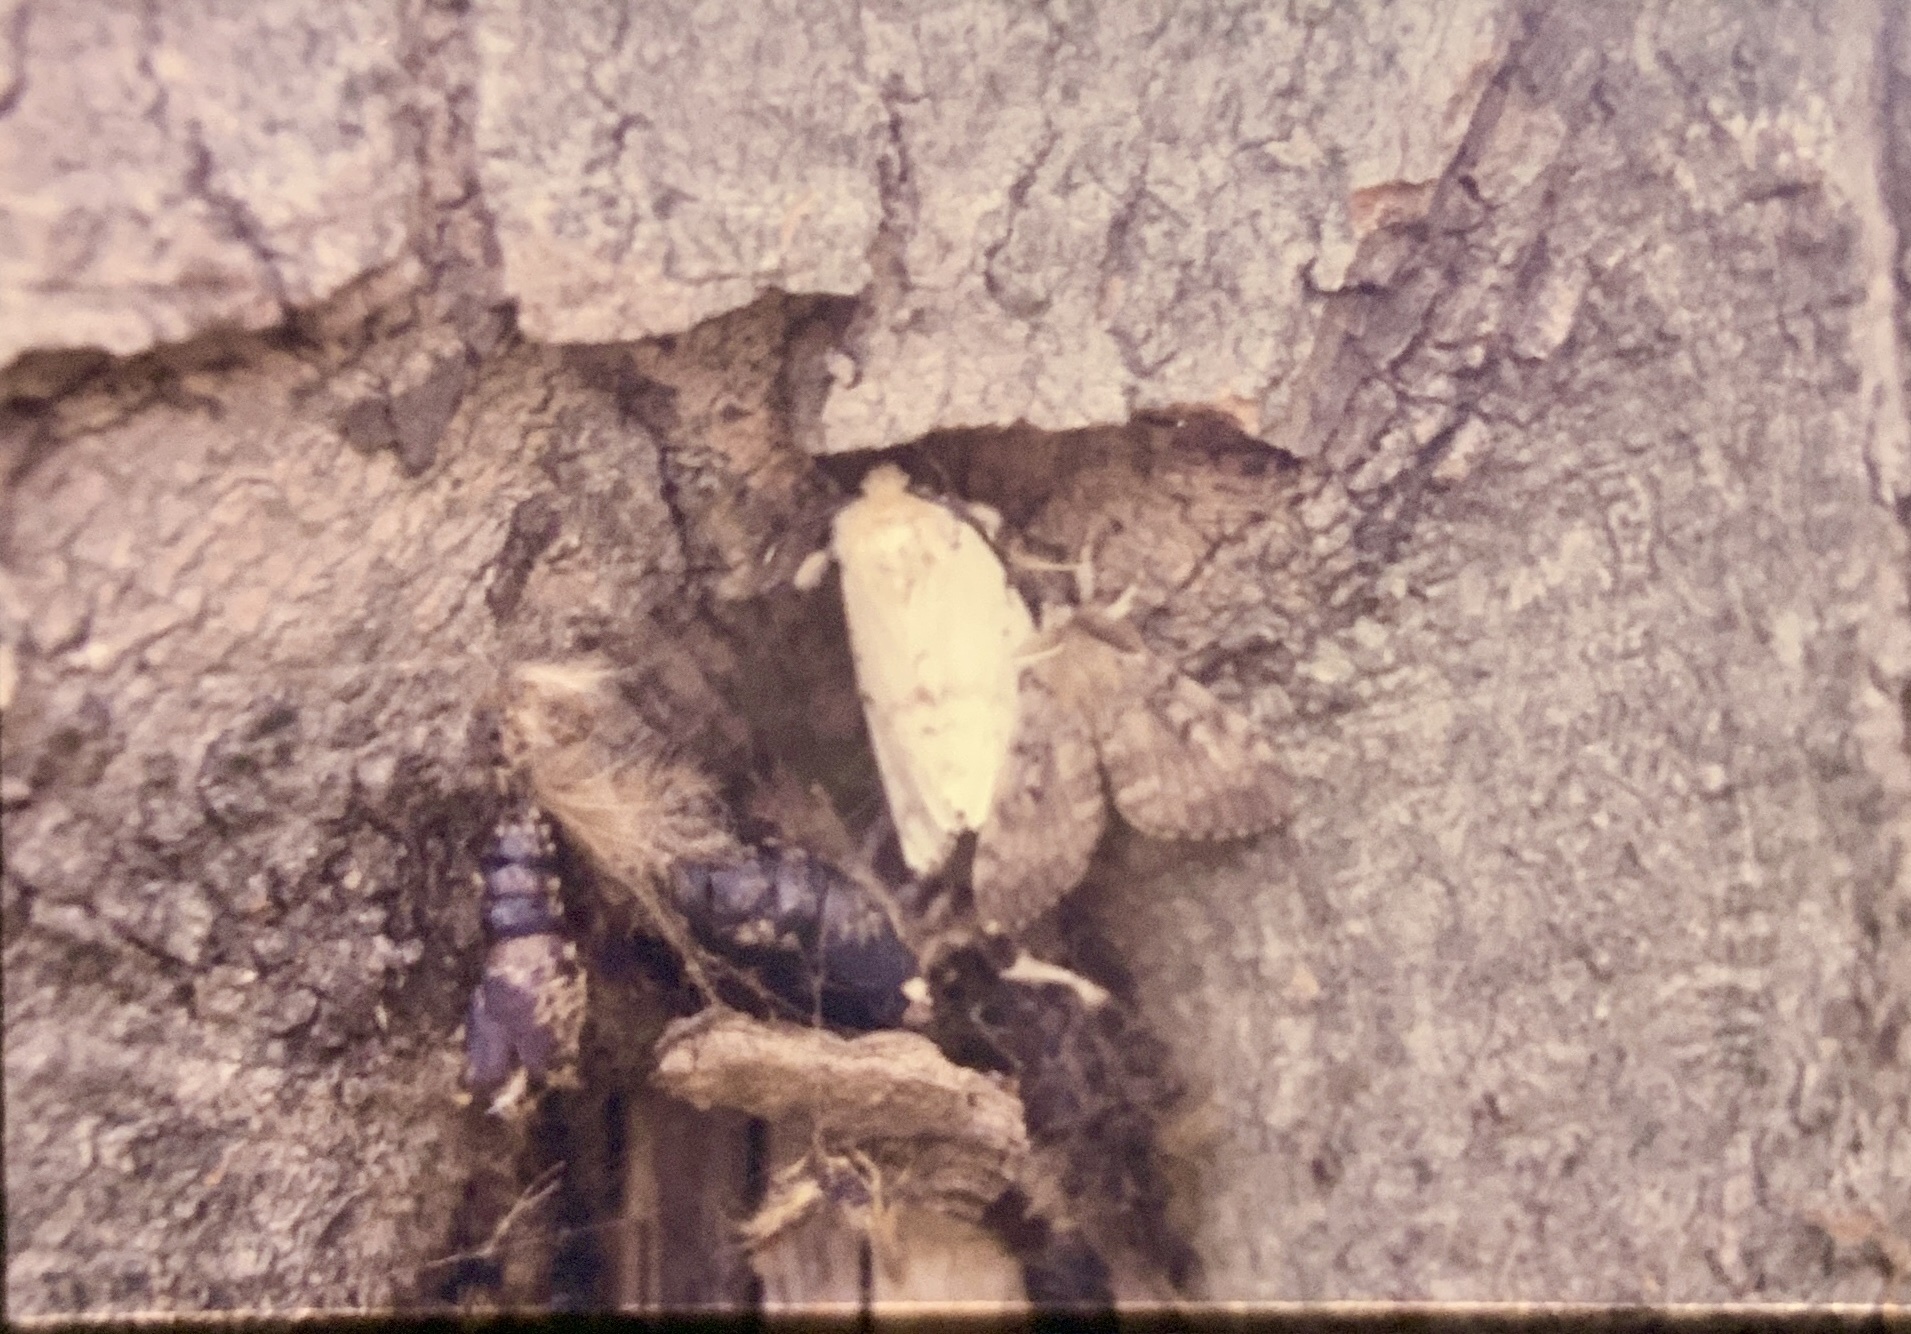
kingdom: Animalia
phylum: Arthropoda
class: Insecta
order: Lepidoptera
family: Erebidae
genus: Lymantria
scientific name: Lymantria dispar
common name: Gypsy moth
